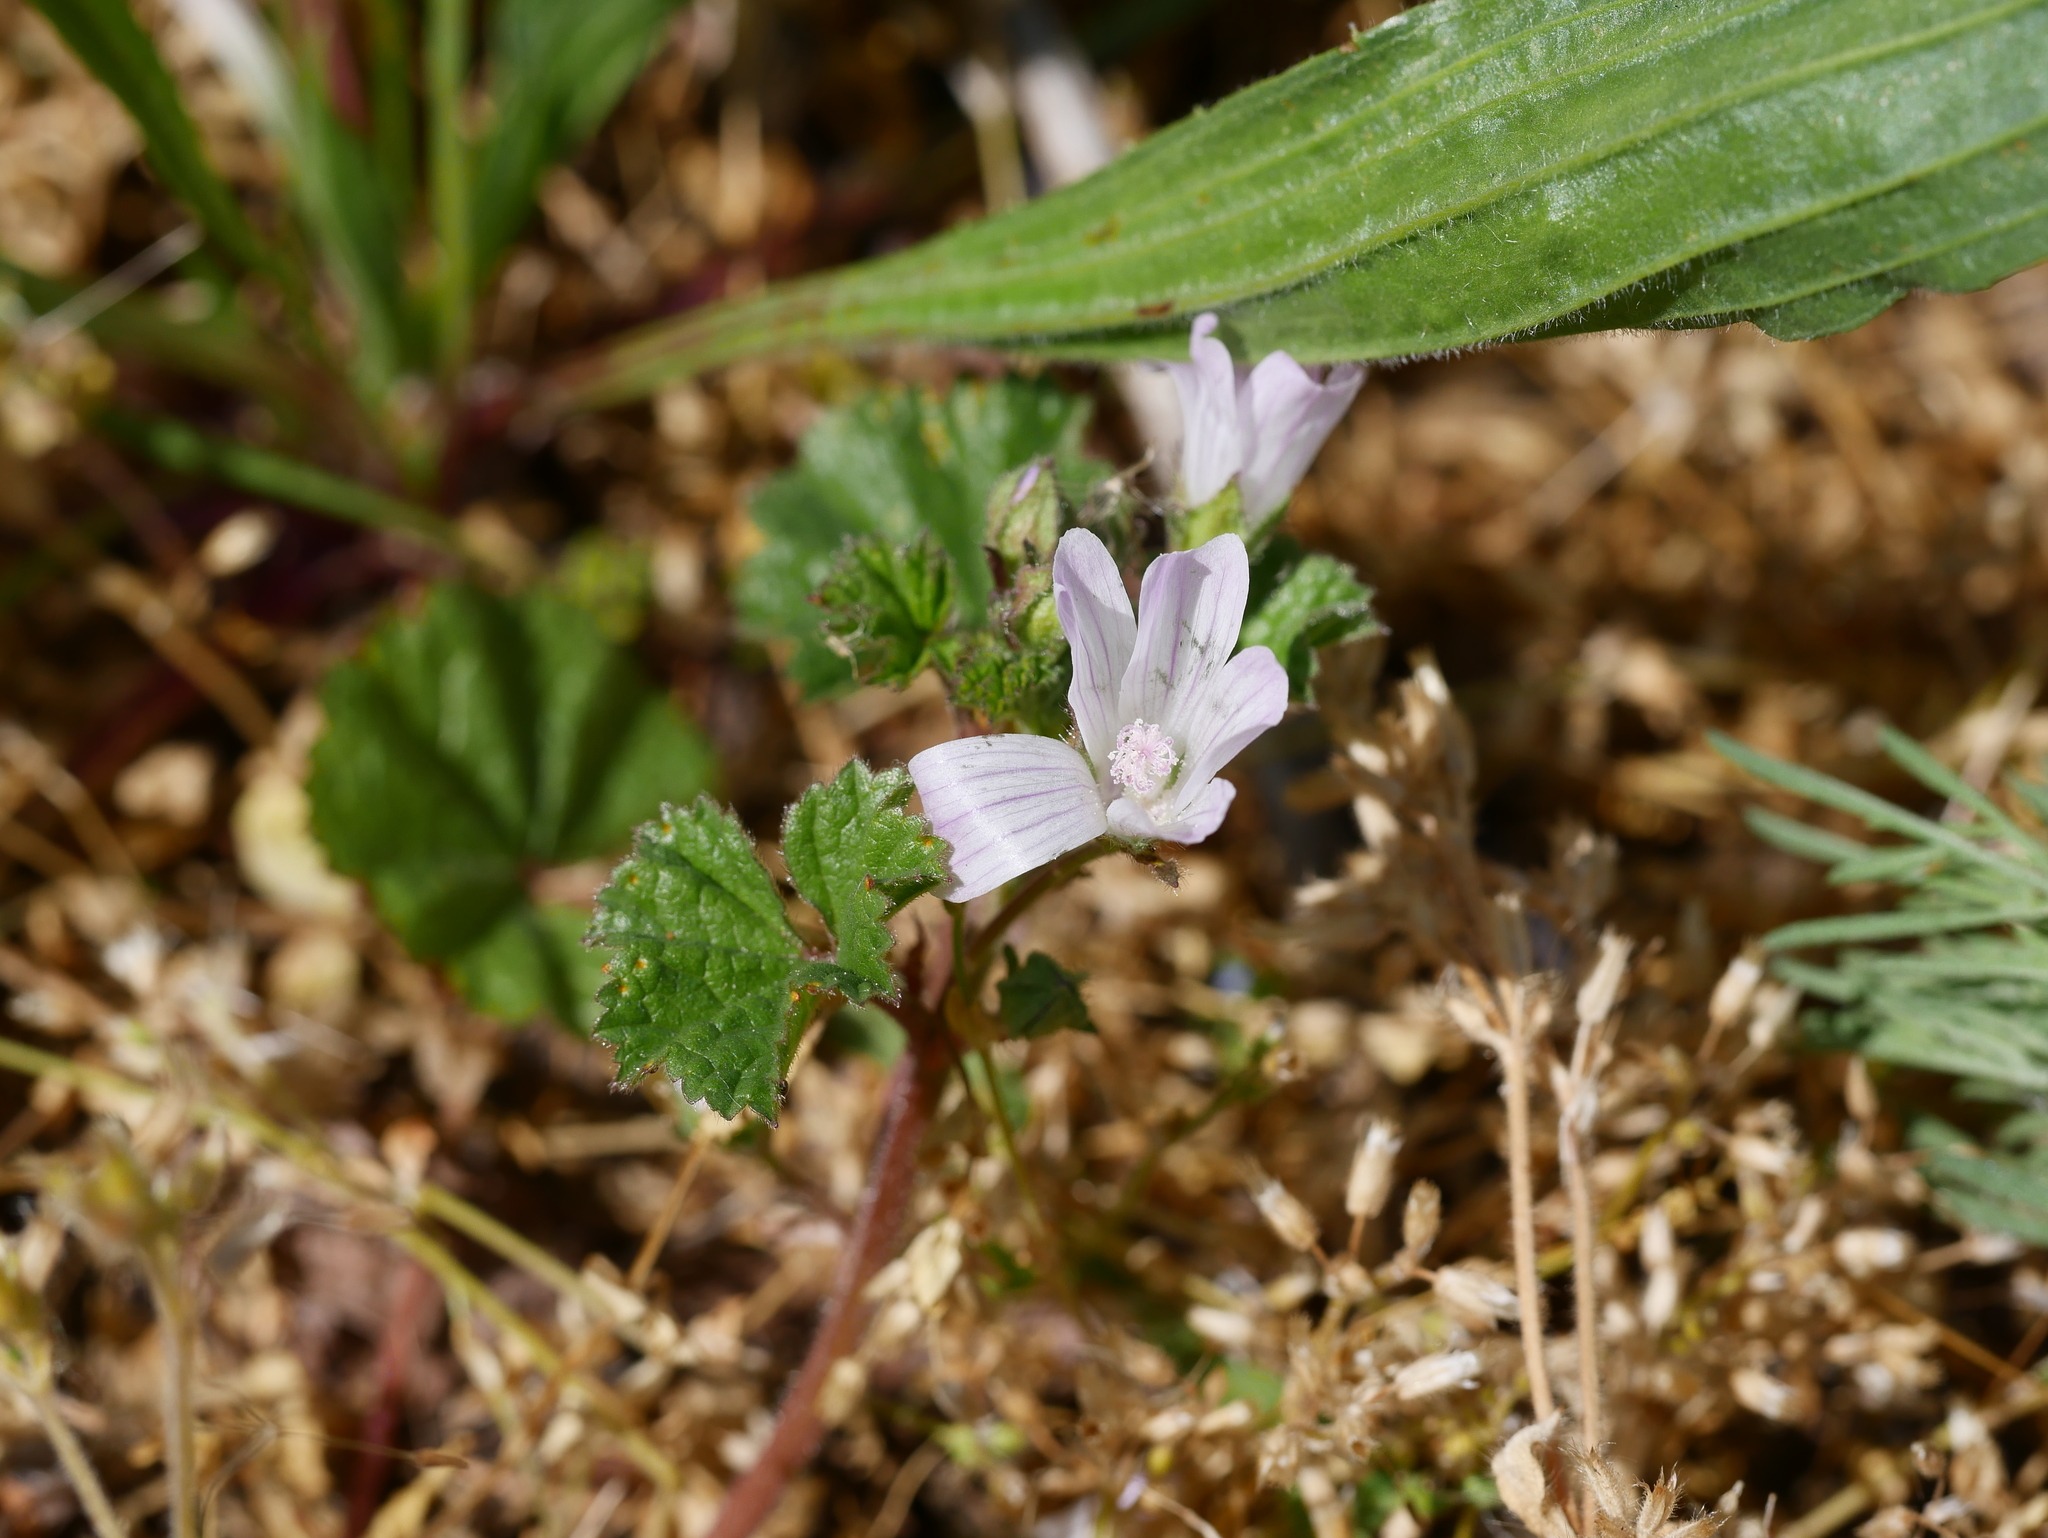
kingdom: Plantae
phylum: Tracheophyta
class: Magnoliopsida
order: Malvales
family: Malvaceae
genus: Malva
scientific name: Malva neglecta
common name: Common mallow
